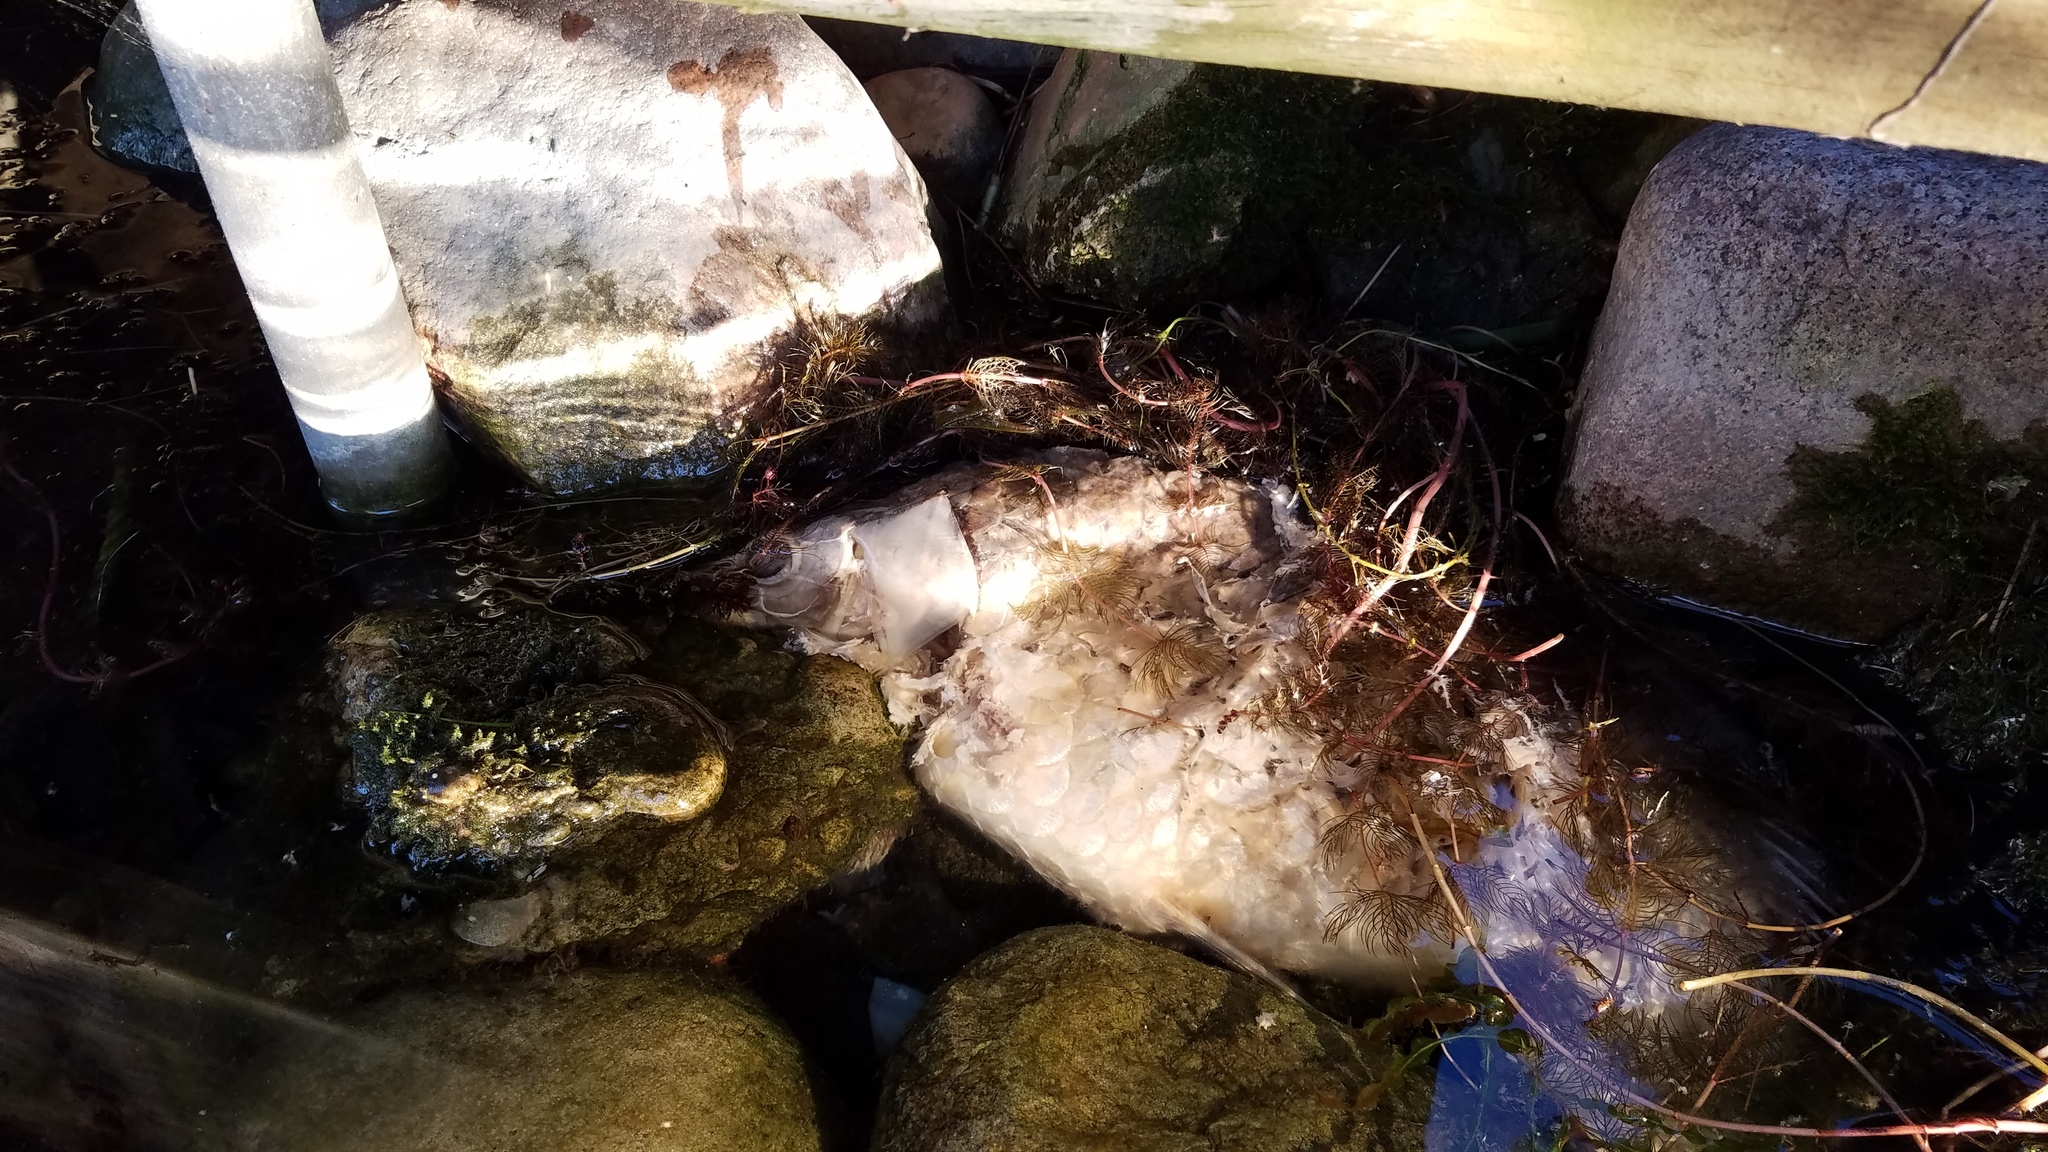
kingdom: Animalia
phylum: Chordata
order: Cypriniformes
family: Cyprinidae
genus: Cyprinus
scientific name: Cyprinus carpio
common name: Common carp
